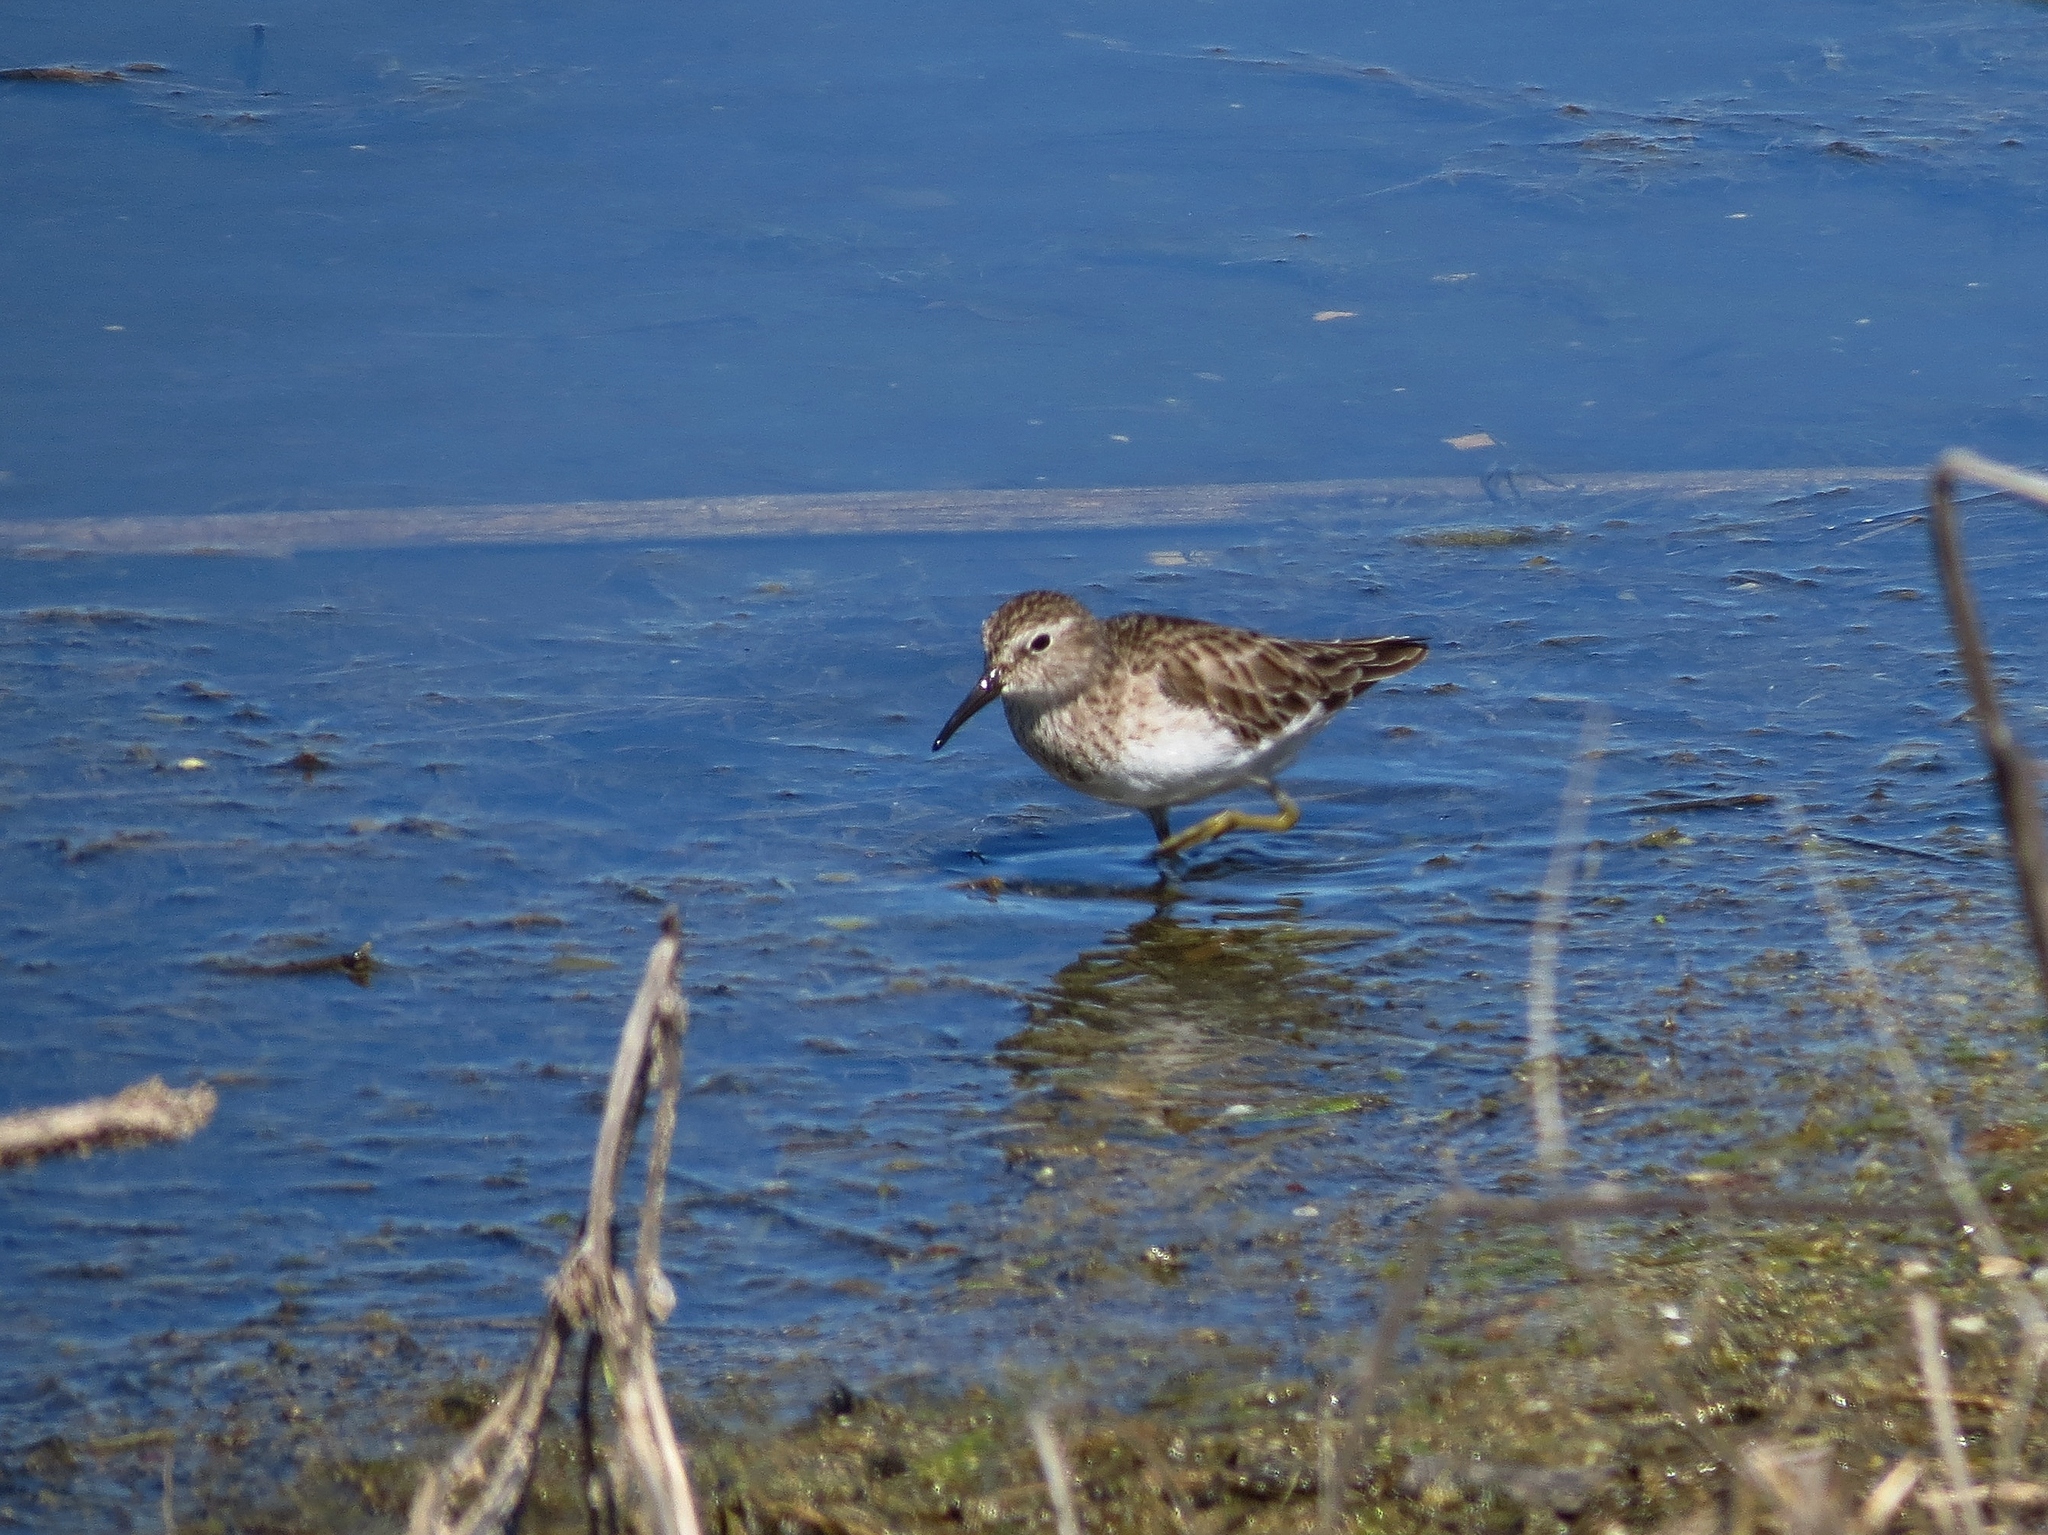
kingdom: Animalia
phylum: Chordata
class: Aves
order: Charadriiformes
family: Scolopacidae
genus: Calidris
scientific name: Calidris minutilla
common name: Least sandpiper
